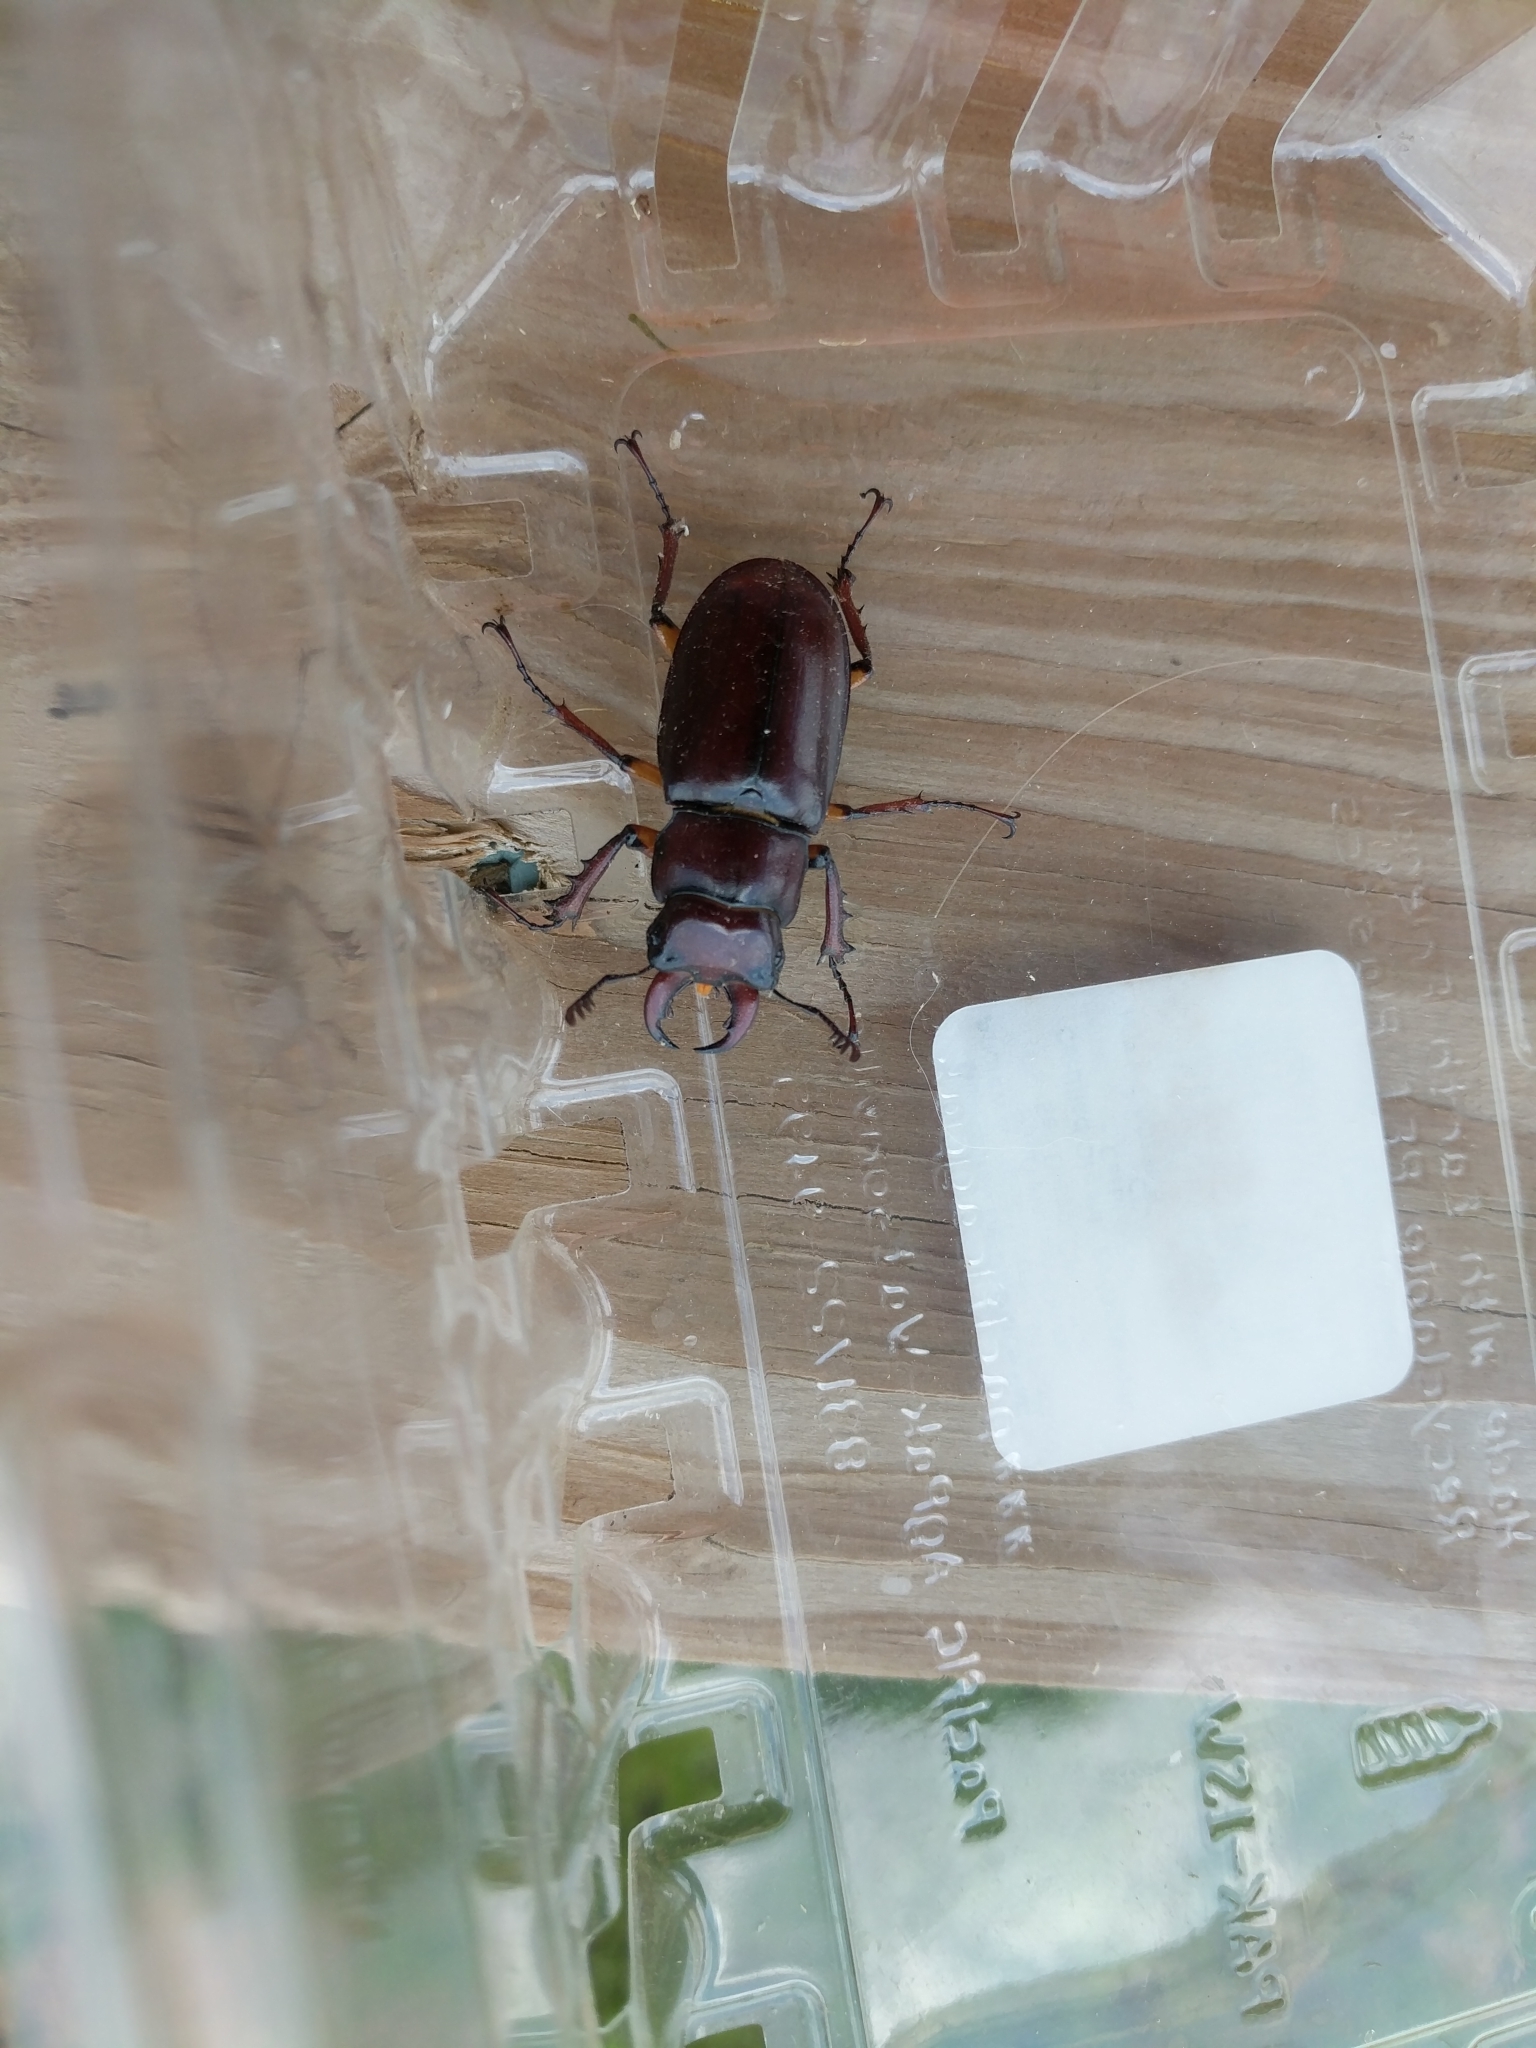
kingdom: Animalia
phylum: Arthropoda
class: Insecta
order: Coleoptera
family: Lucanidae
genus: Lucanus
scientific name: Lucanus capreolus
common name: Stag beetle
